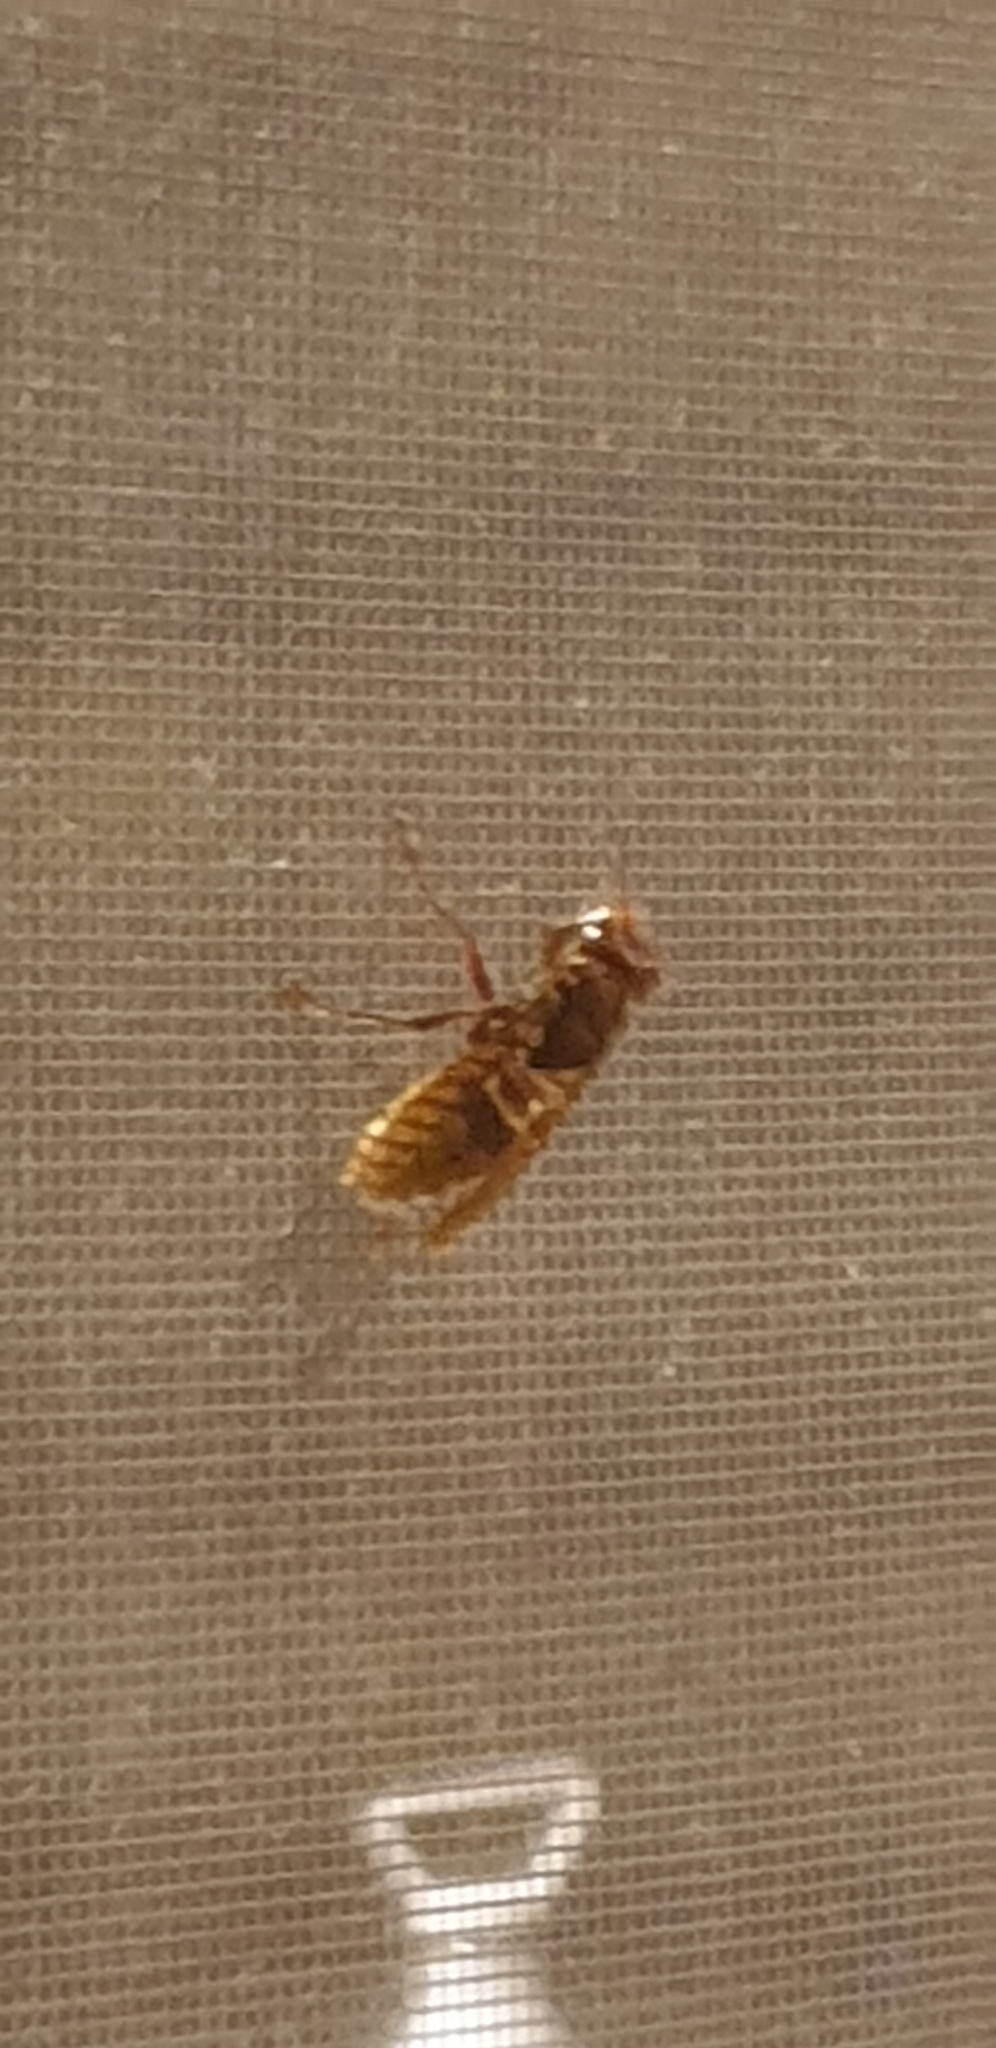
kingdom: Animalia
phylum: Arthropoda
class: Insecta
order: Hymenoptera
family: Vespidae
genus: Vespa
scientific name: Vespa crabro
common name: Hornet
